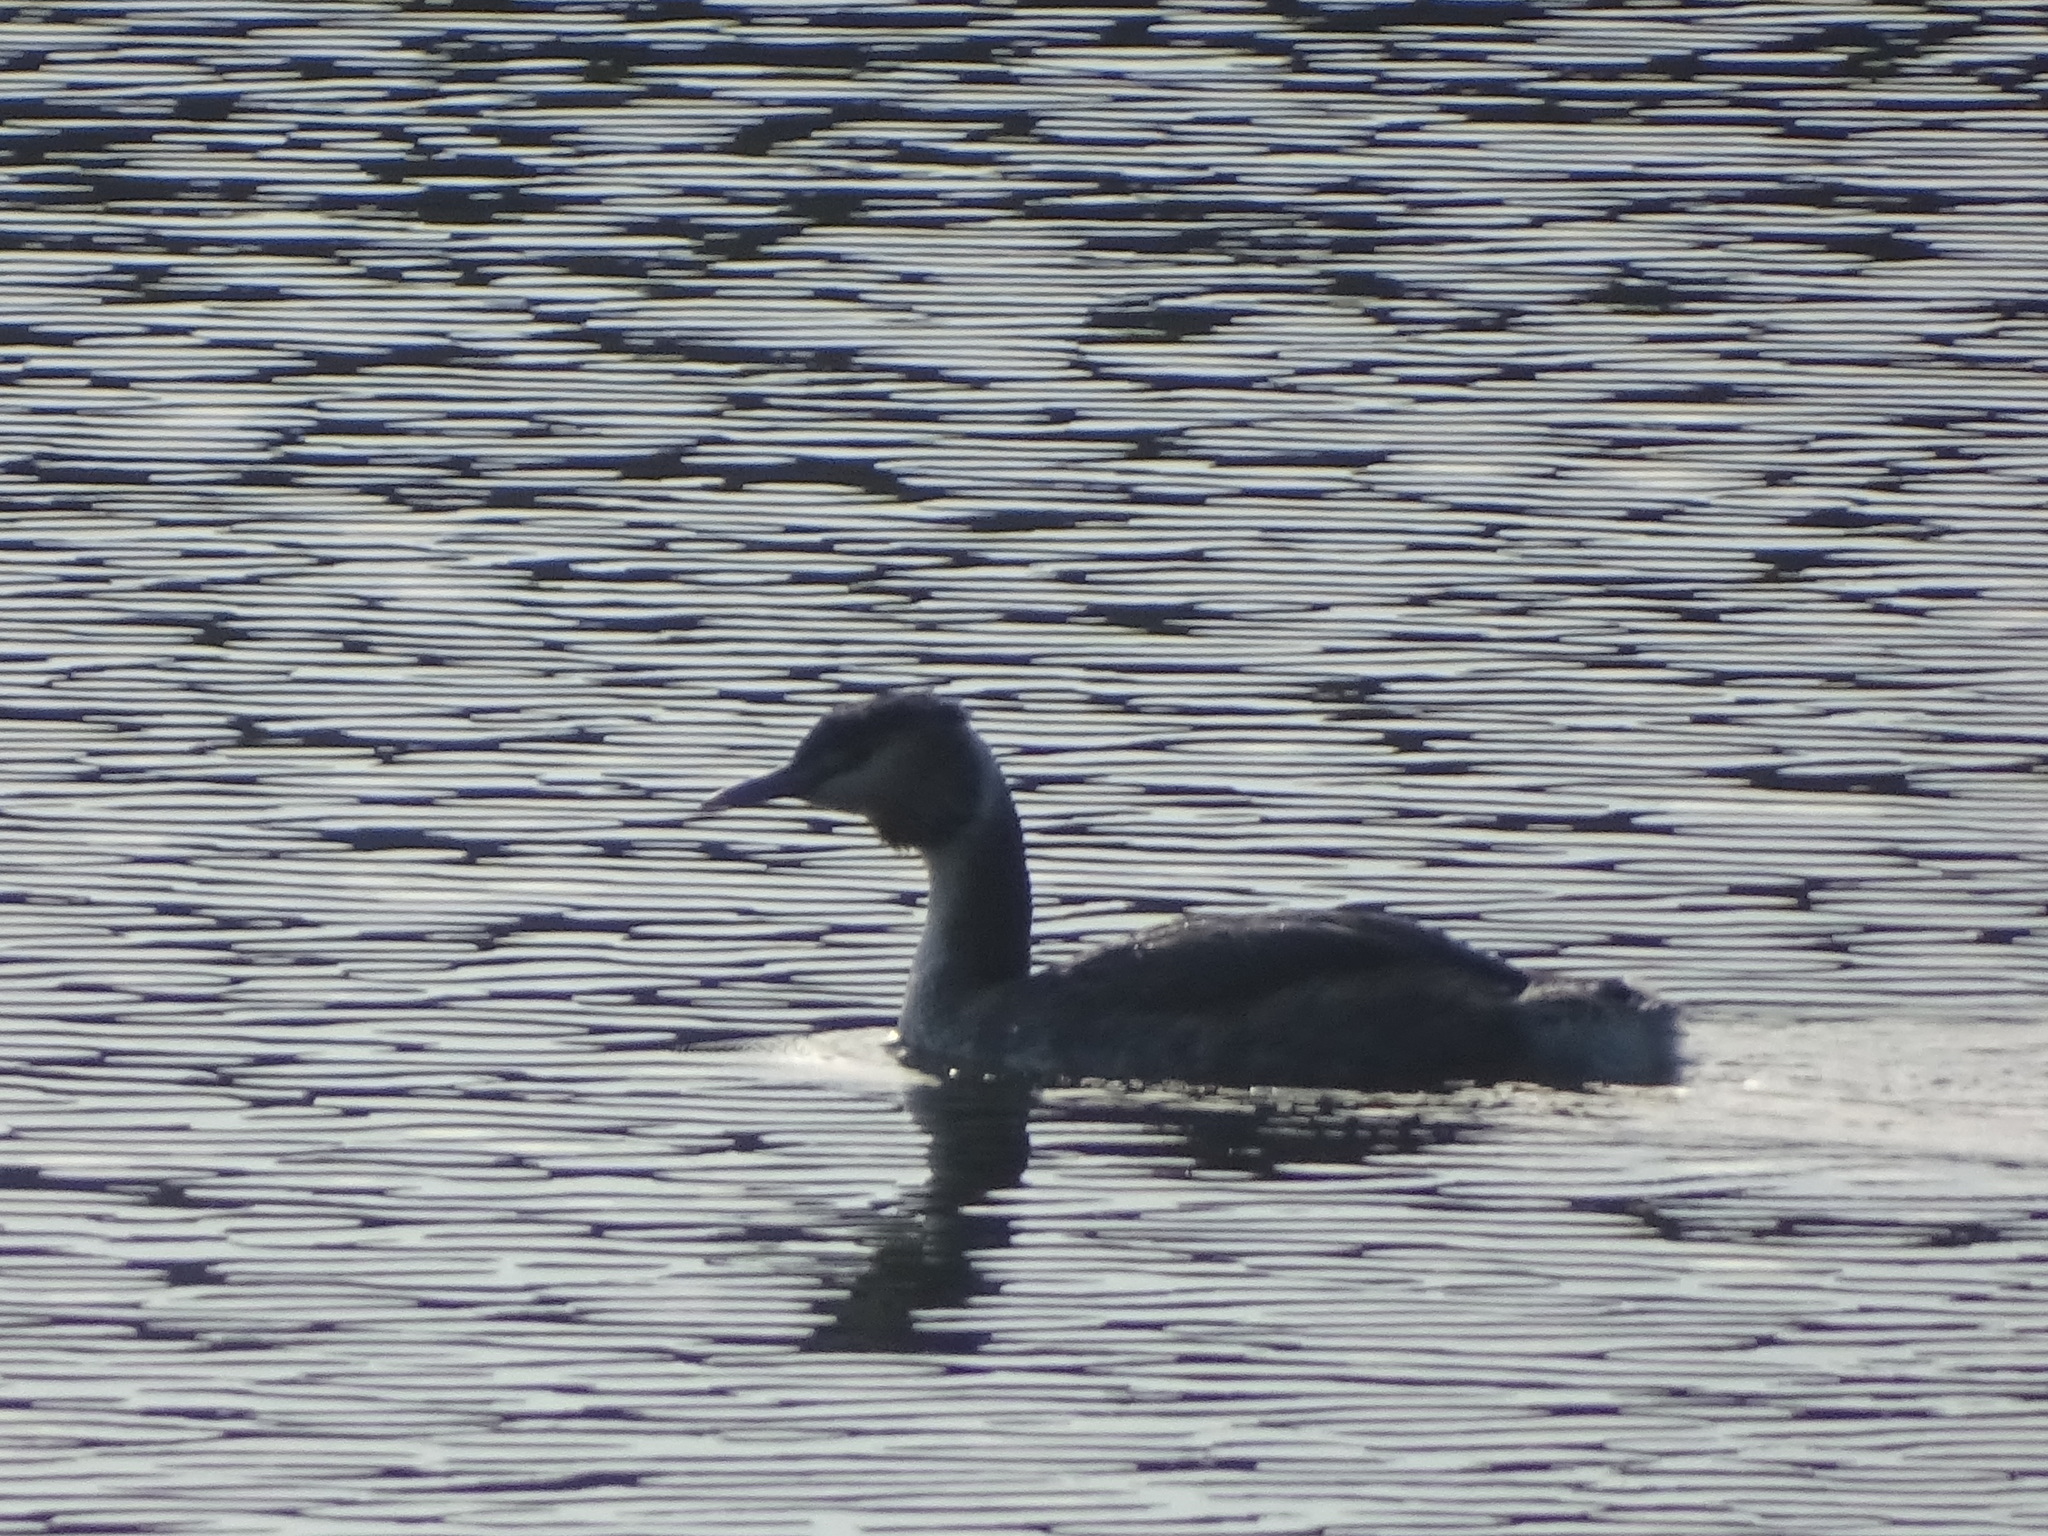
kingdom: Animalia
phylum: Chordata
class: Aves
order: Podicipediformes
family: Podicipedidae
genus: Podiceps
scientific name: Podiceps cristatus
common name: Great crested grebe
